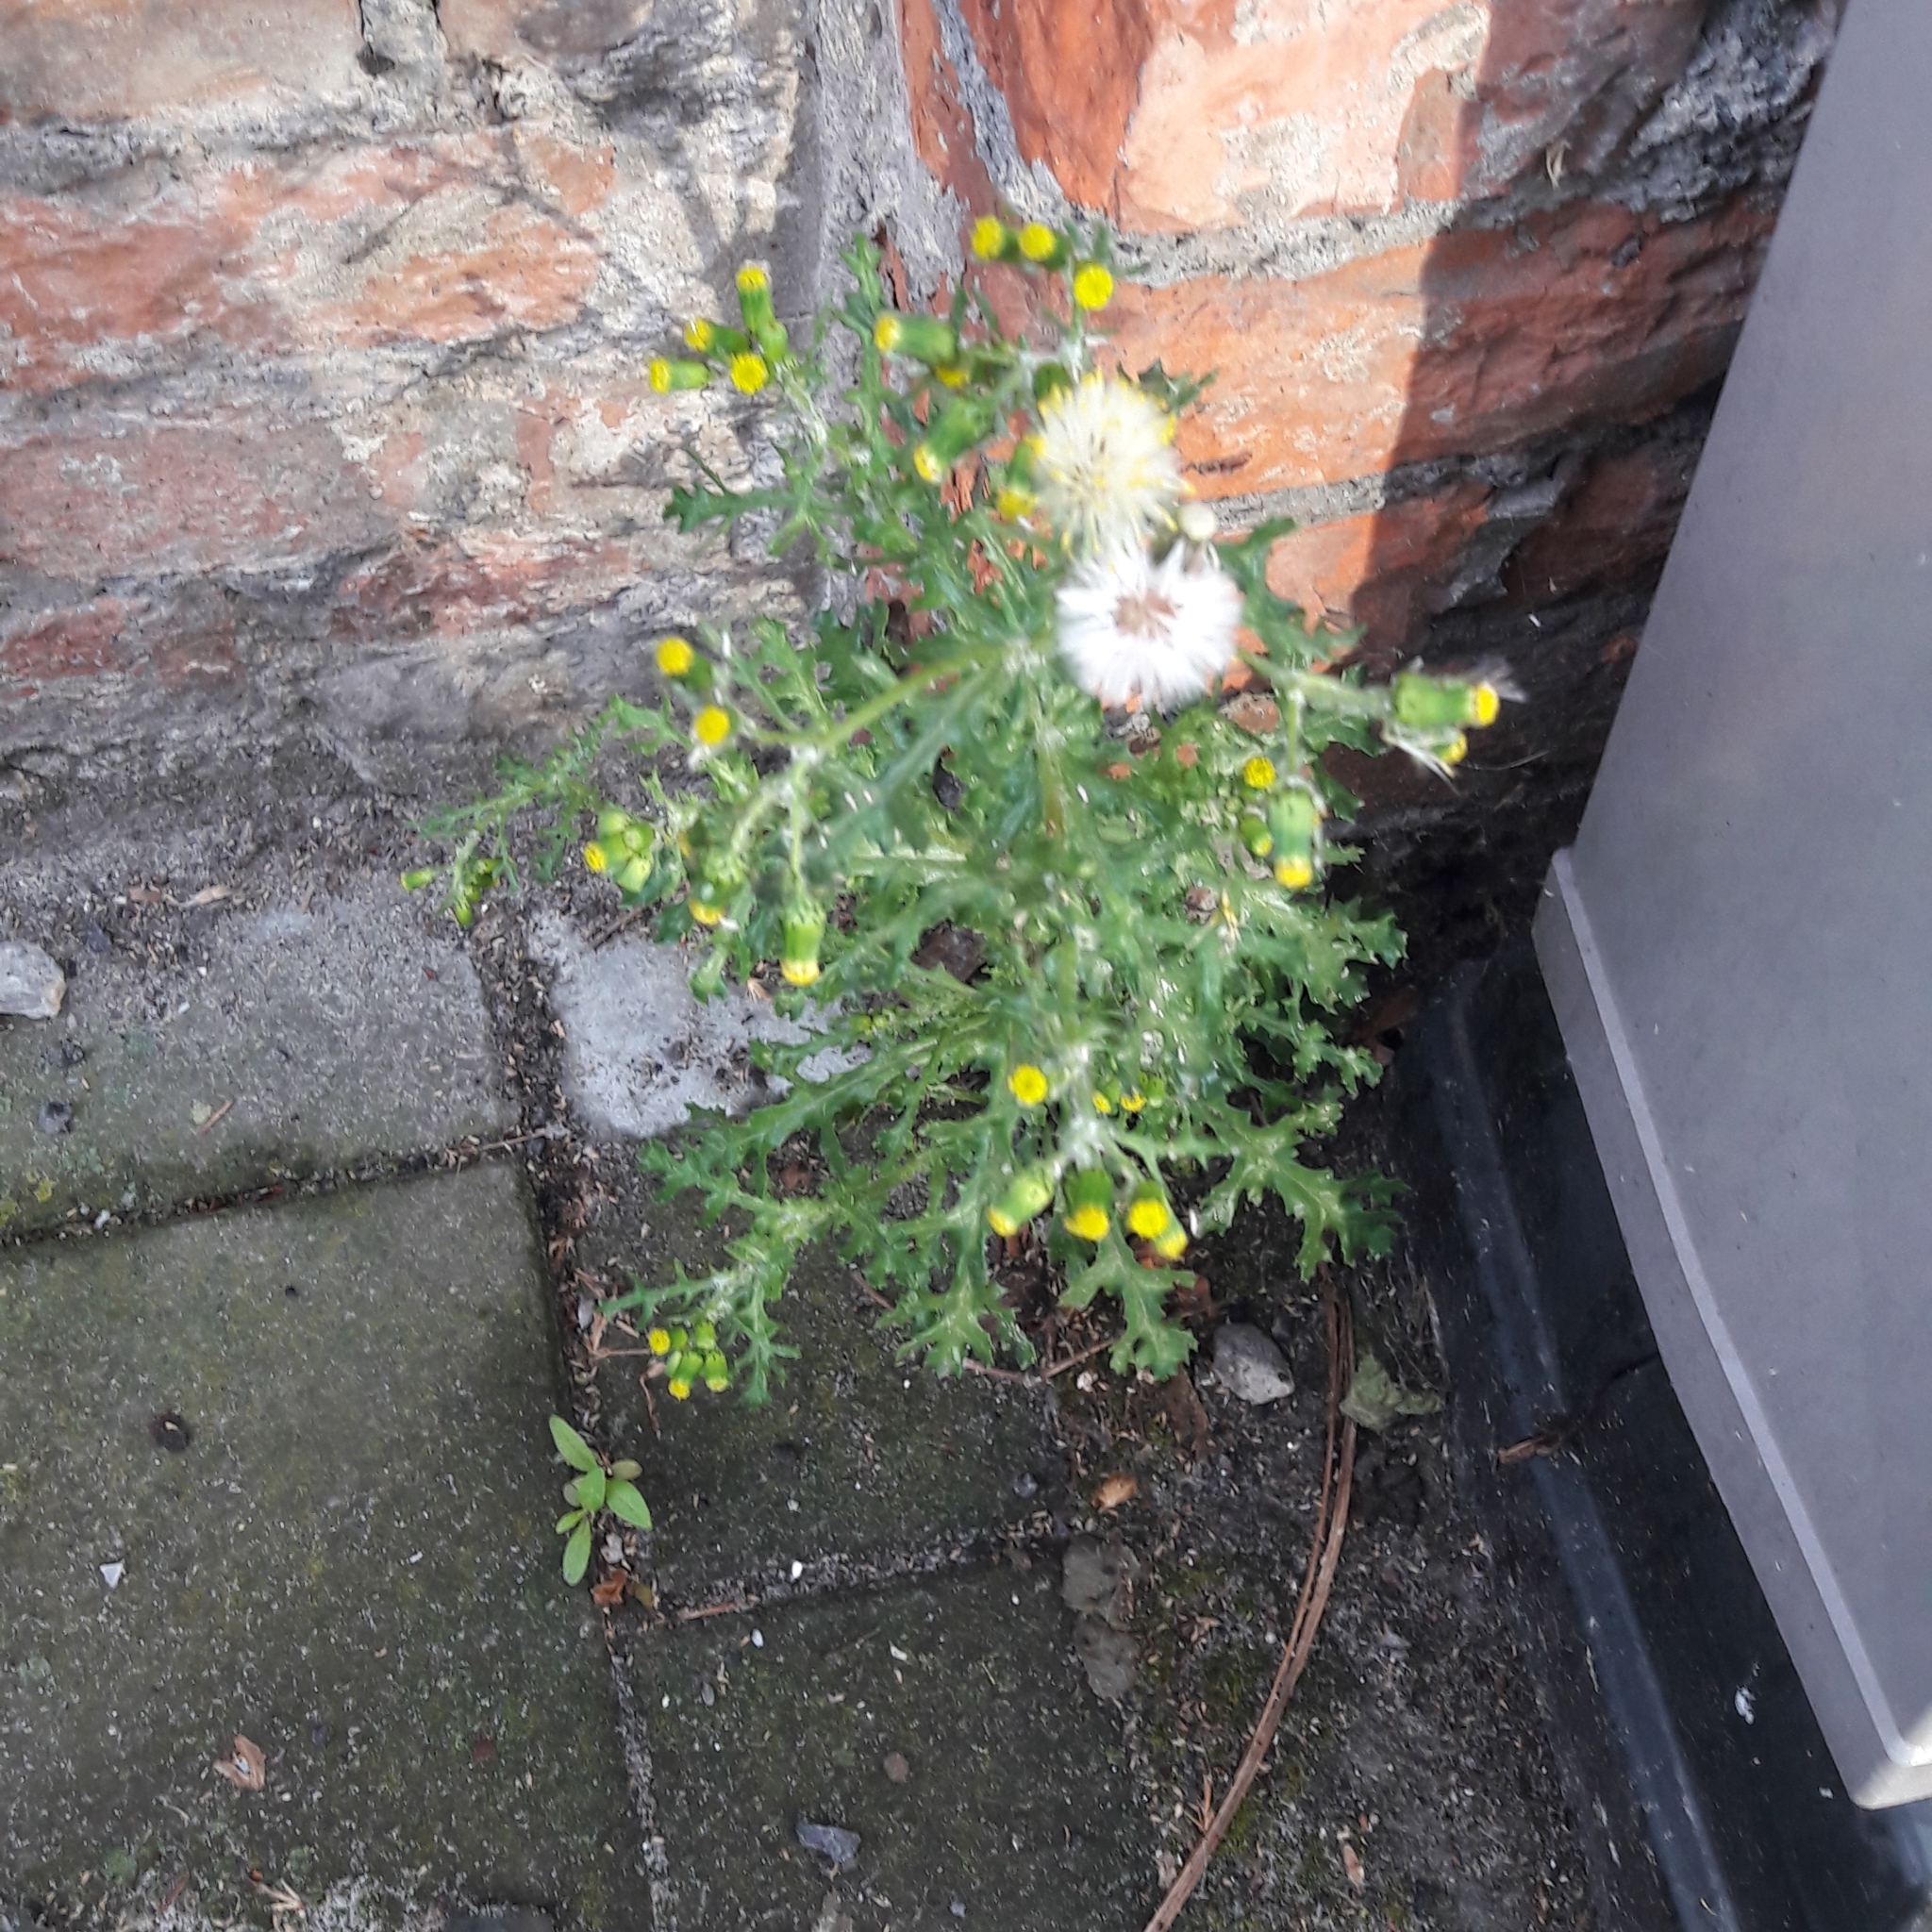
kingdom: Plantae
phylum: Tracheophyta
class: Magnoliopsida
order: Asterales
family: Asteraceae
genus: Senecio
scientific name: Senecio vulgaris
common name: Old-man-in-the-spring
